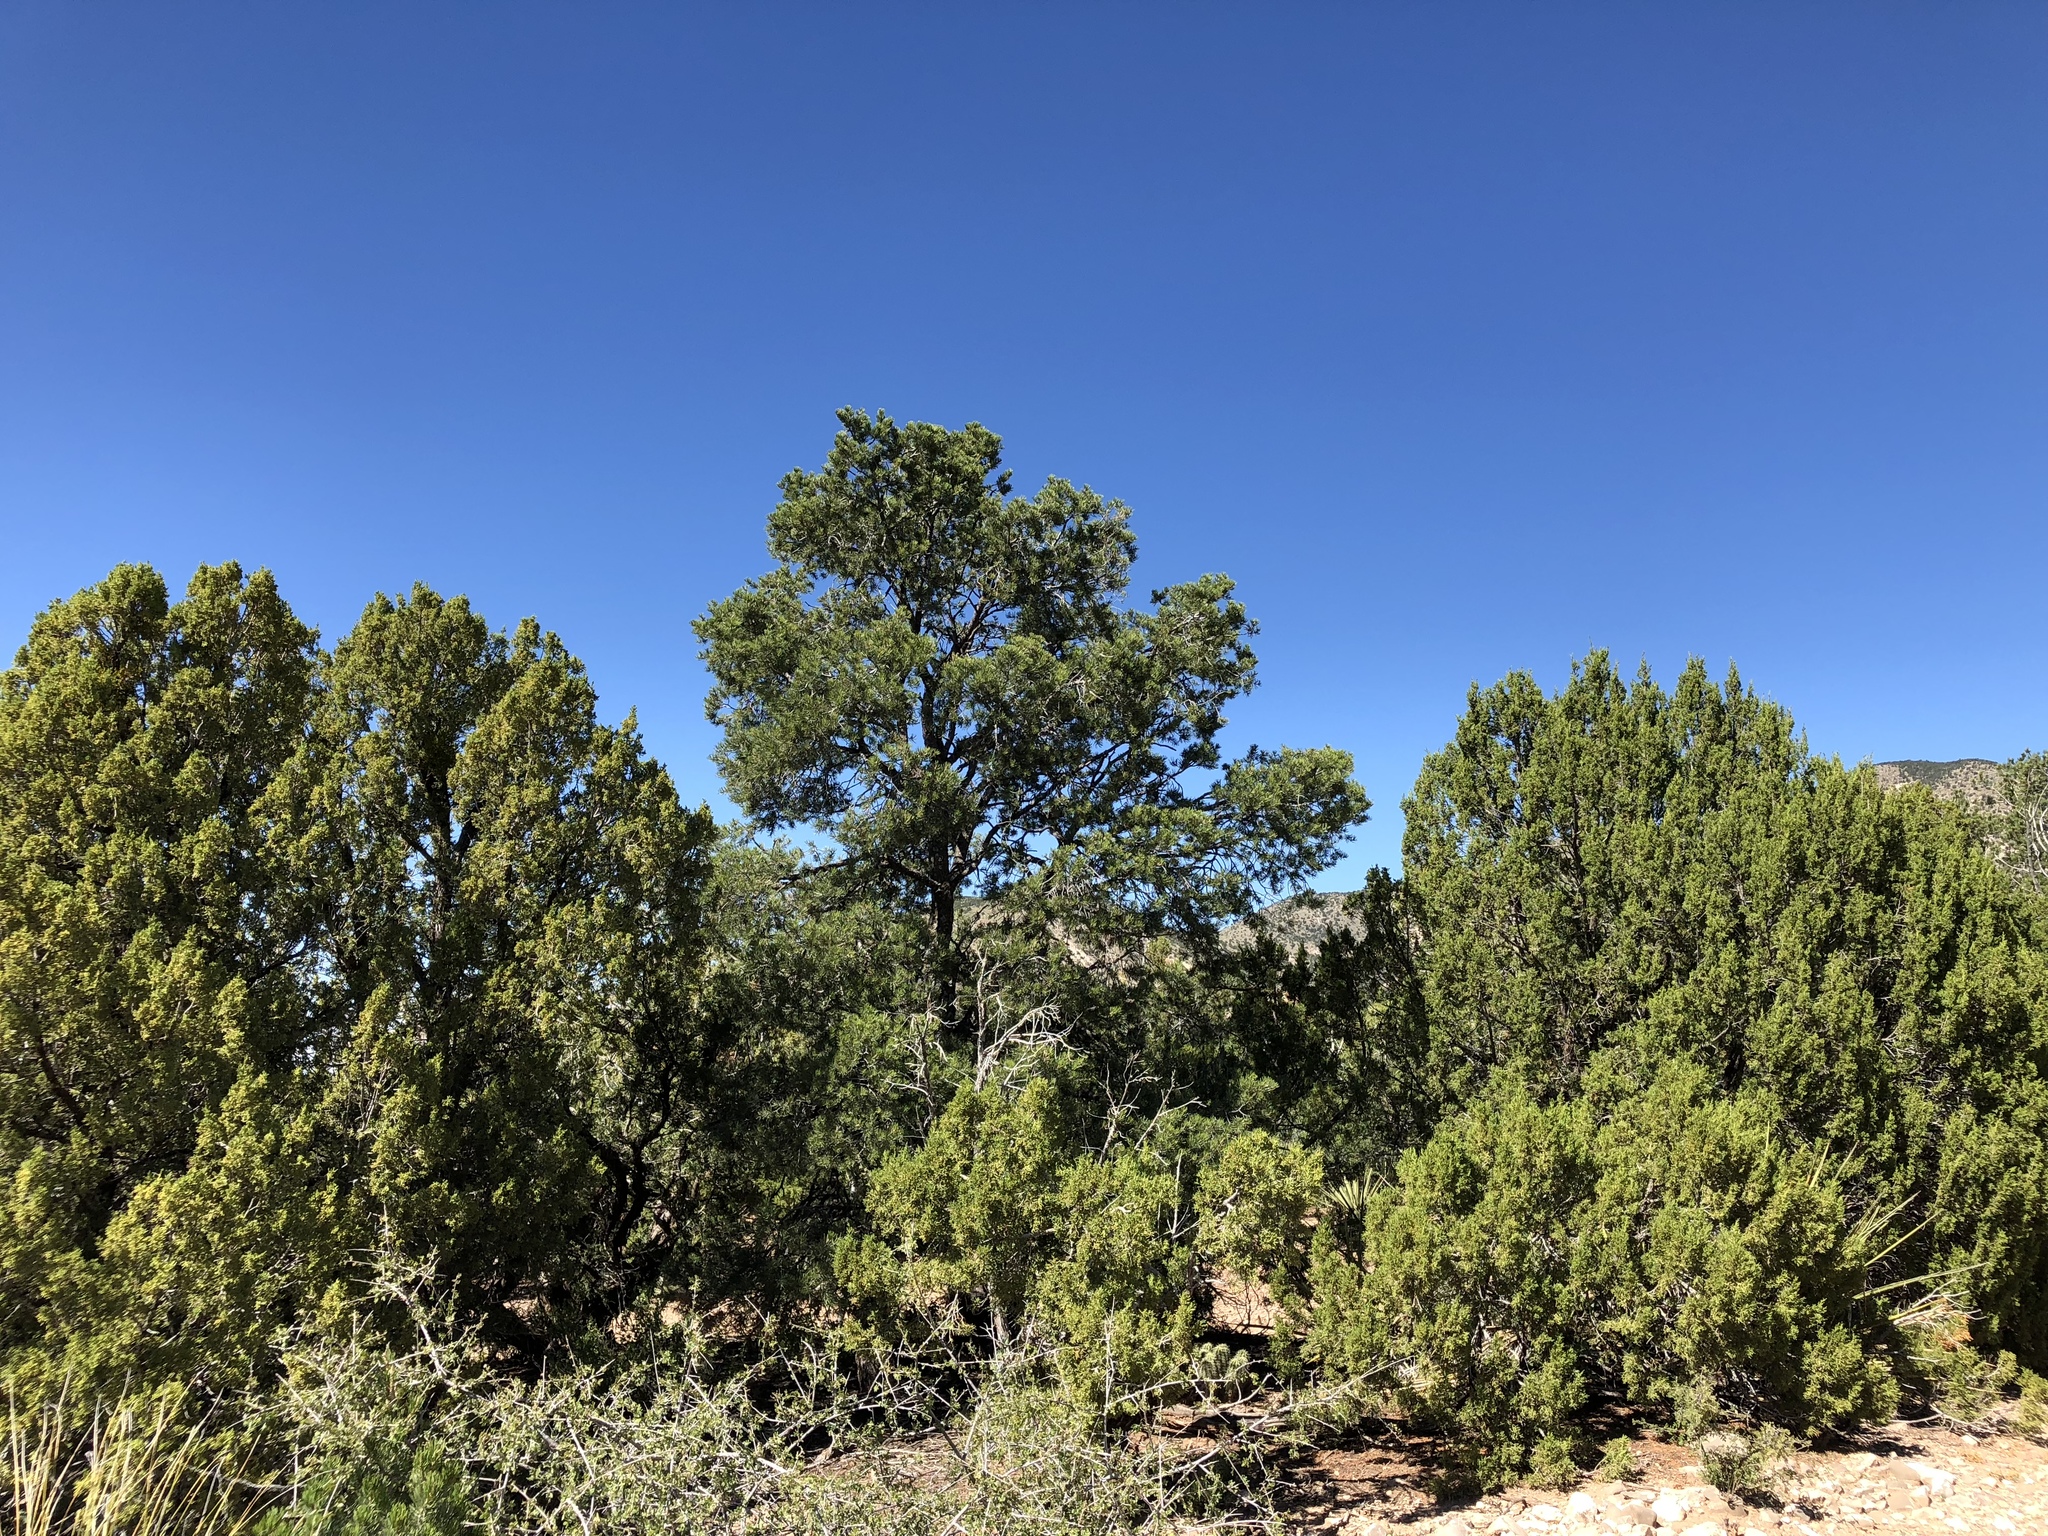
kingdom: Plantae
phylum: Tracheophyta
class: Pinopsida
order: Pinales
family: Pinaceae
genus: Pinus
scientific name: Pinus edulis
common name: Colorado pinyon
